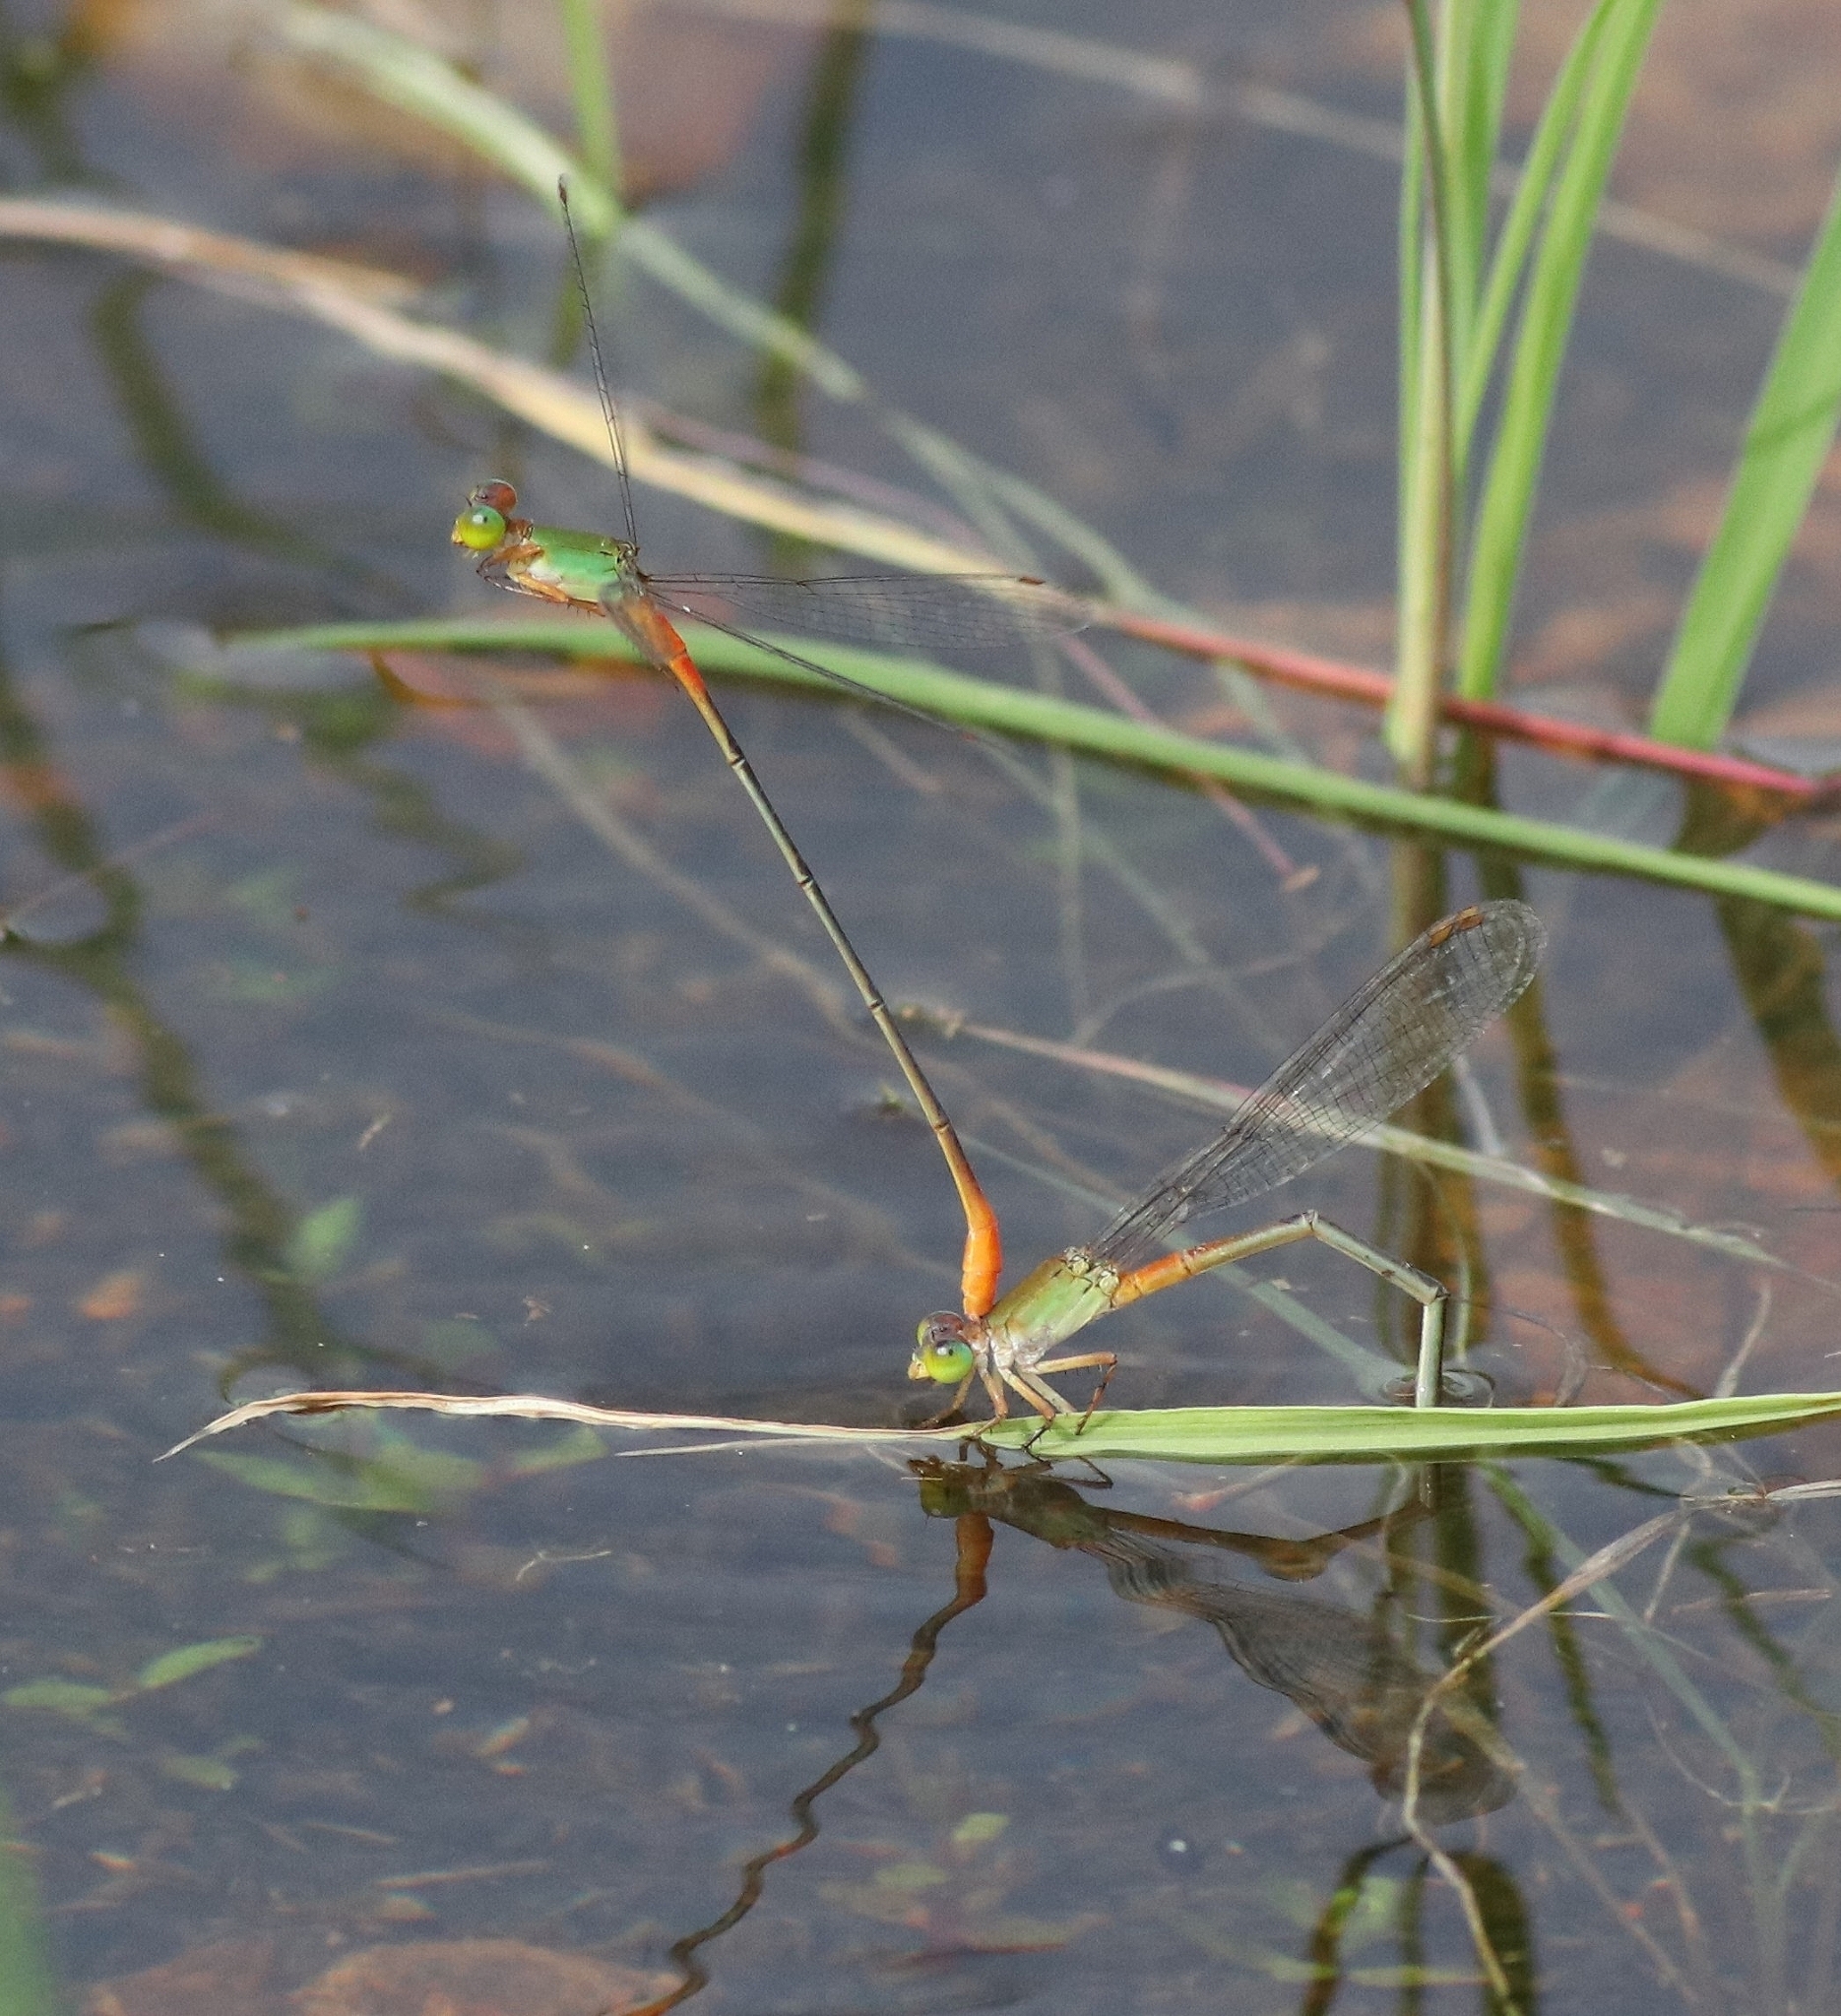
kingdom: Animalia
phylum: Arthropoda
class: Insecta
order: Odonata
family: Coenagrionidae
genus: Ceriagrion
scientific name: Ceriagrion cerinorubellum
